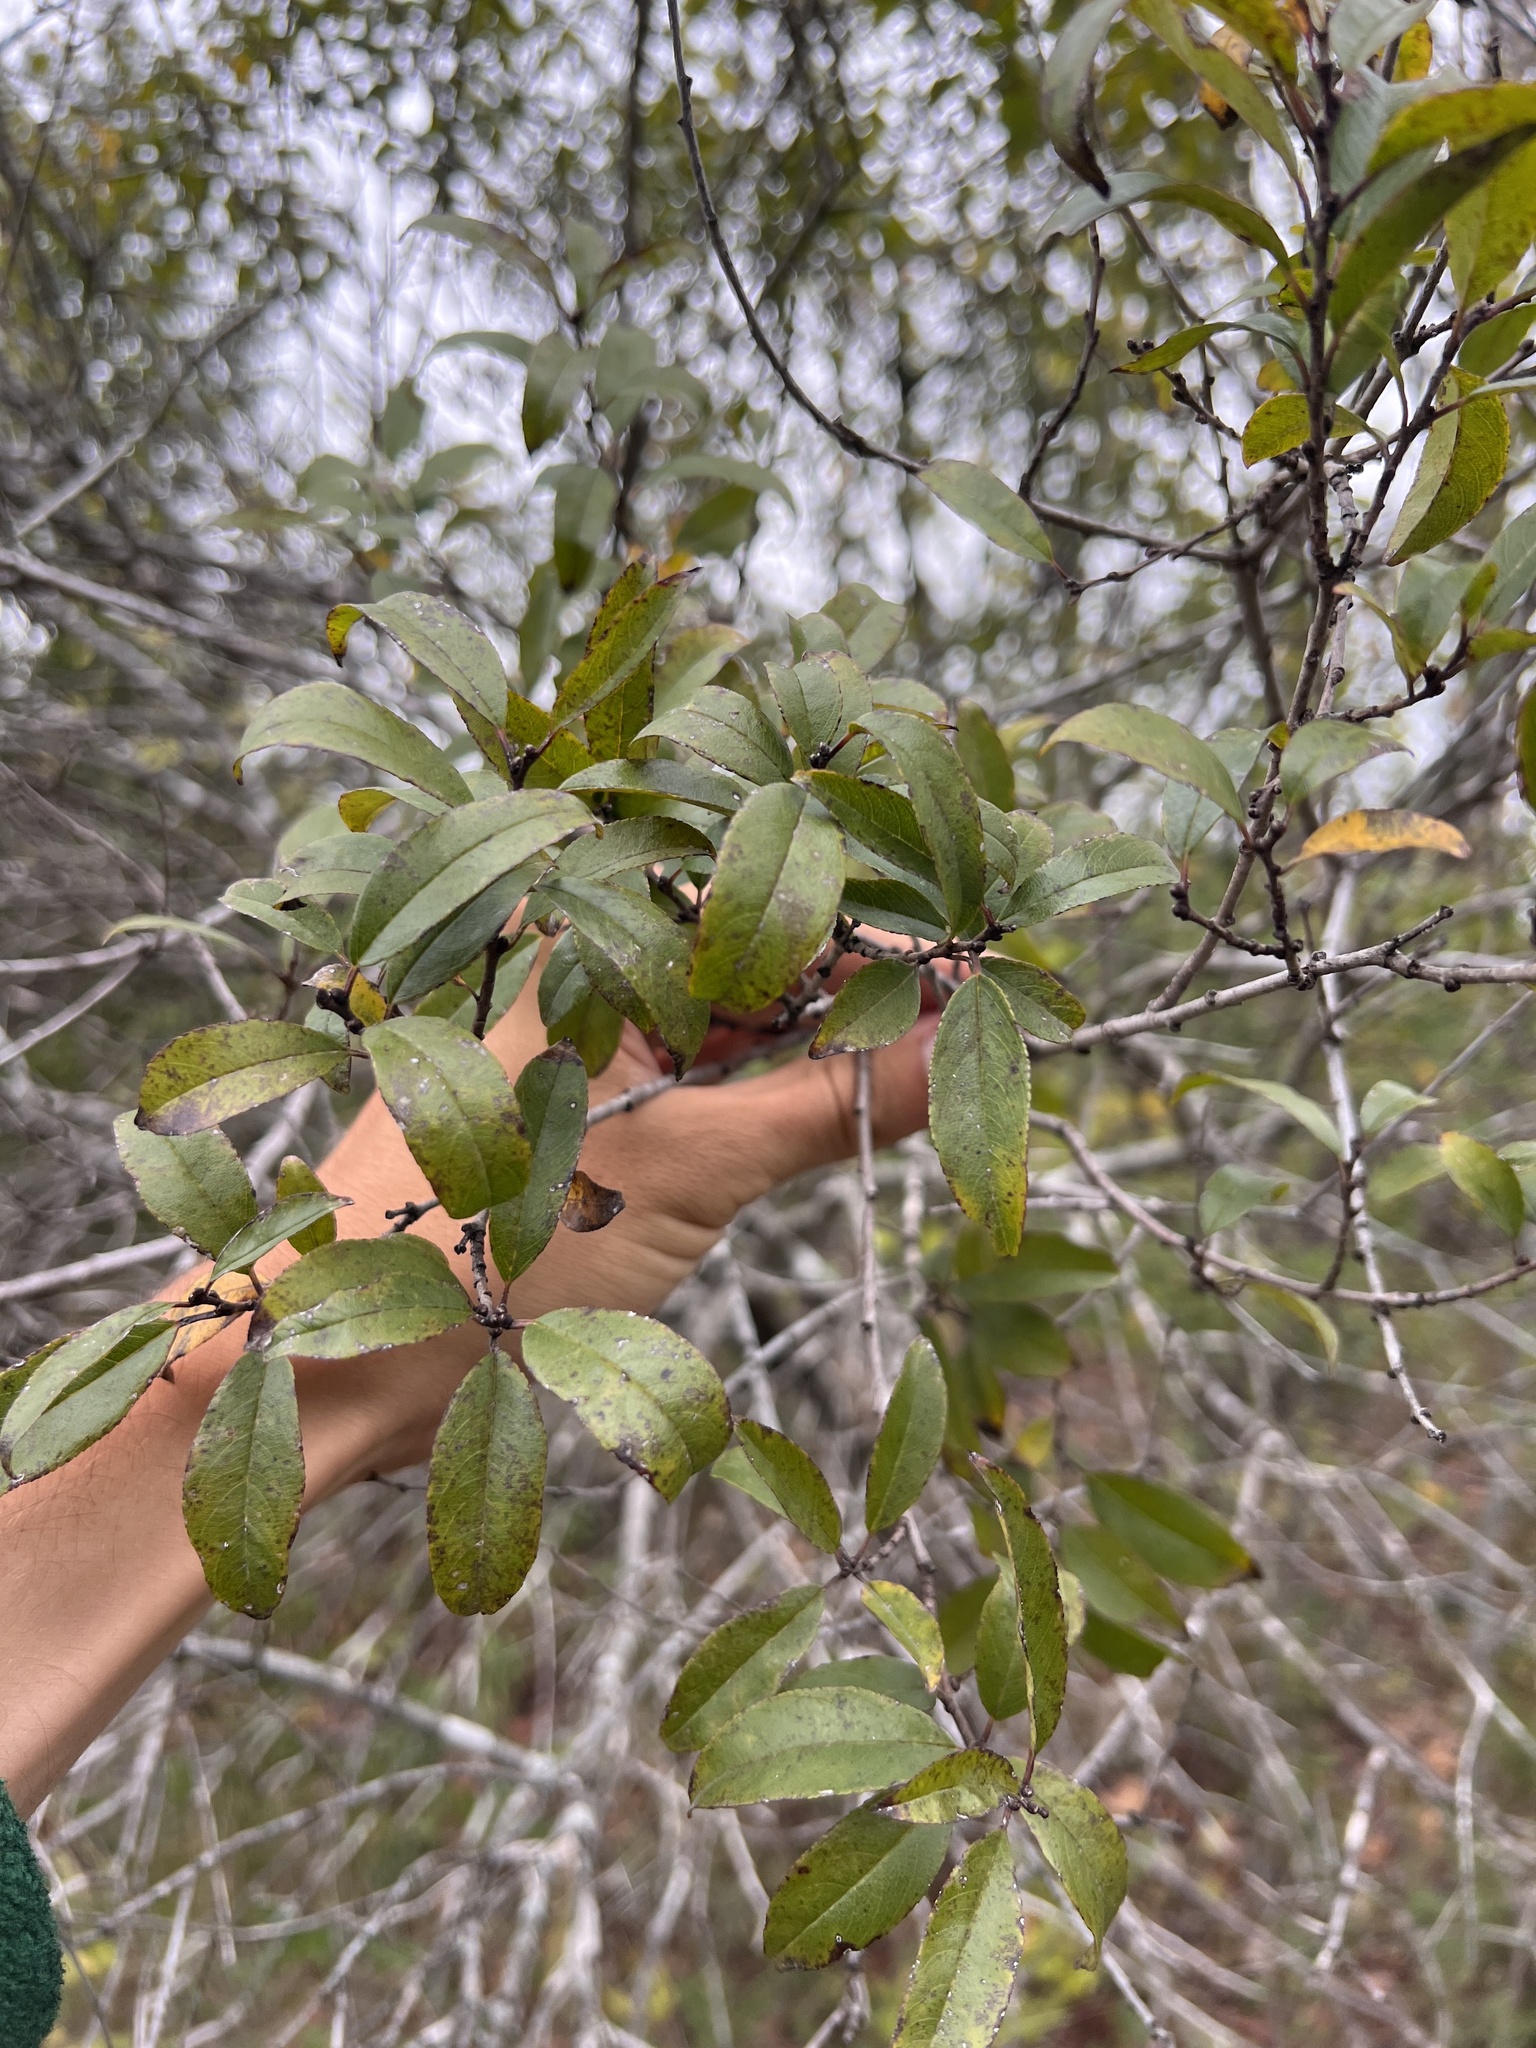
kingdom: Plantae
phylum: Tracheophyta
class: Magnoliopsida
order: Rosales
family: Rhamnaceae
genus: Endotropis
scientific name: Endotropis lanceolata
